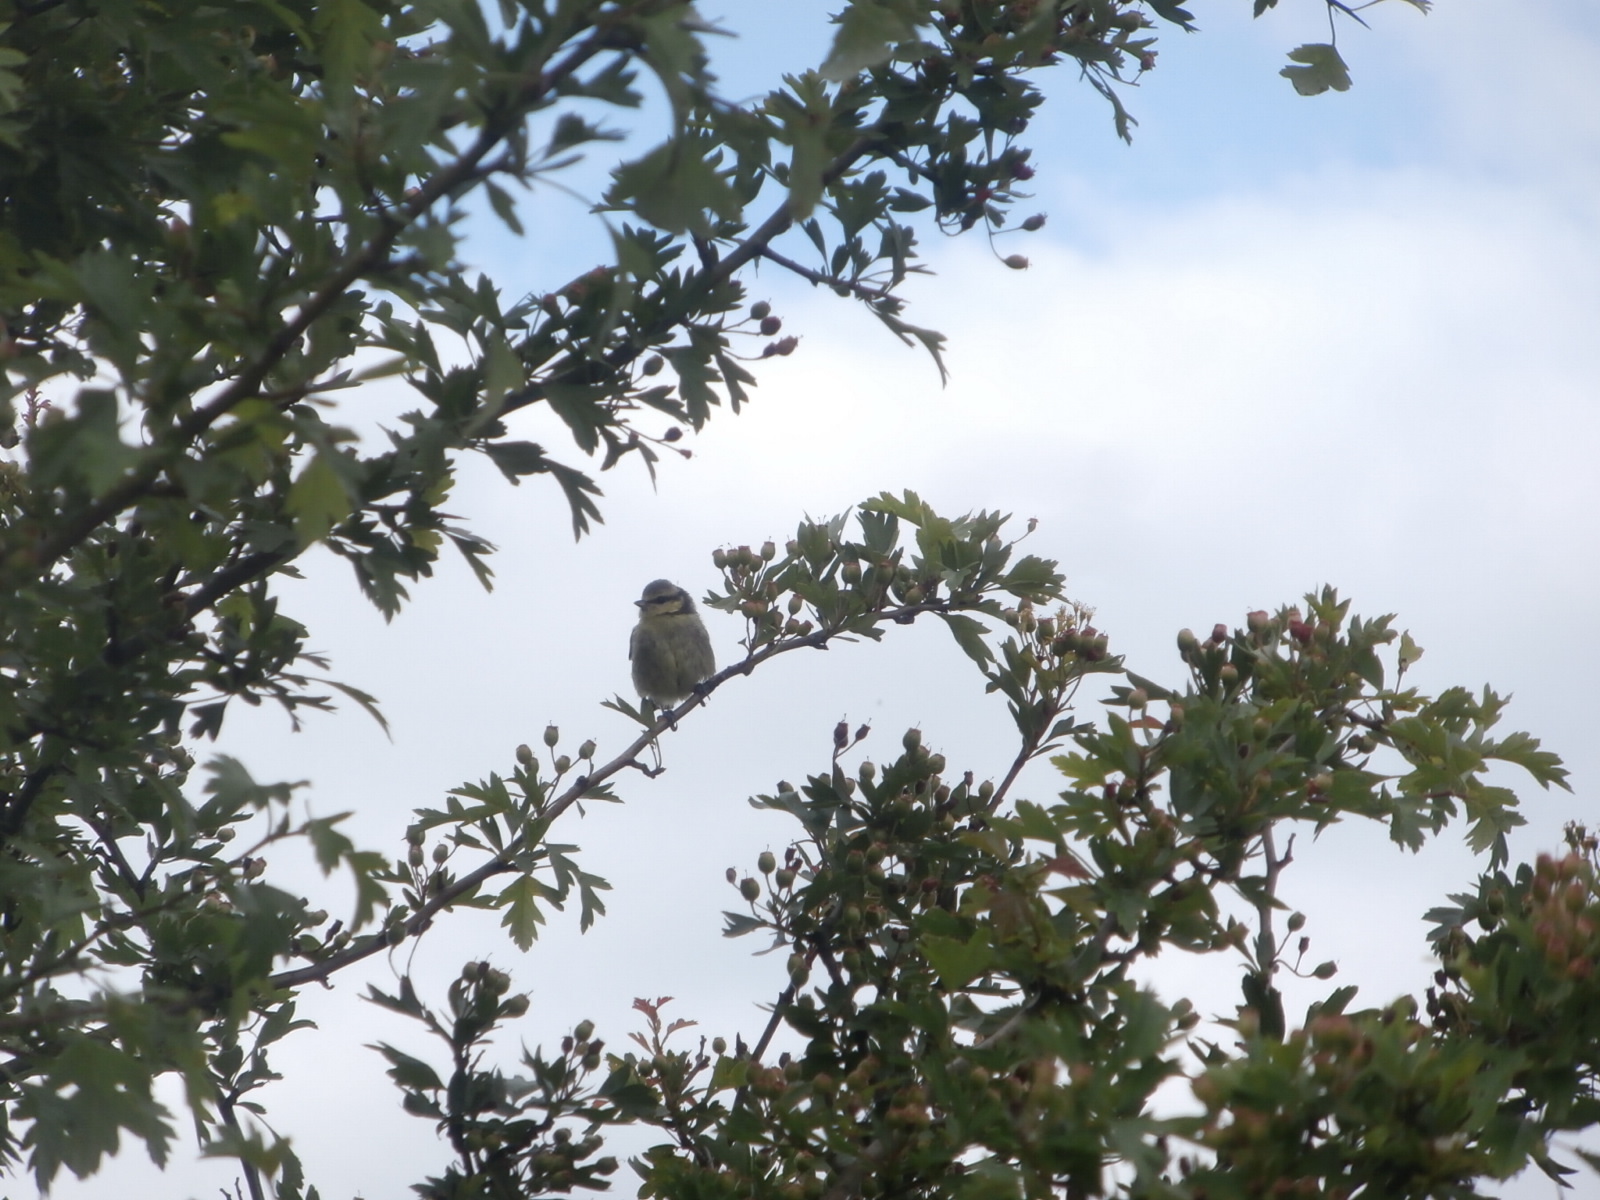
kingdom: Animalia
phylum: Chordata
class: Aves
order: Passeriformes
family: Paridae
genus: Cyanistes
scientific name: Cyanistes caeruleus
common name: Eurasian blue tit
